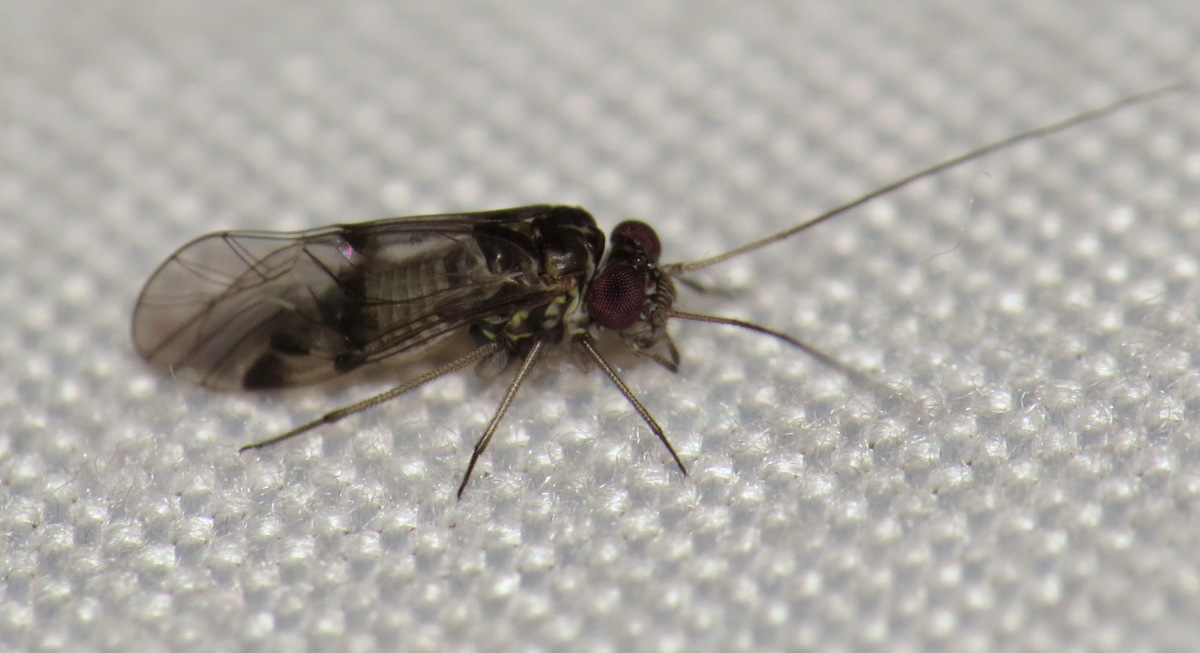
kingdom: Animalia
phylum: Arthropoda
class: Insecta
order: Psocodea
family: Psocidae
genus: Indiopsocus
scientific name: Indiopsocus bisignatus
